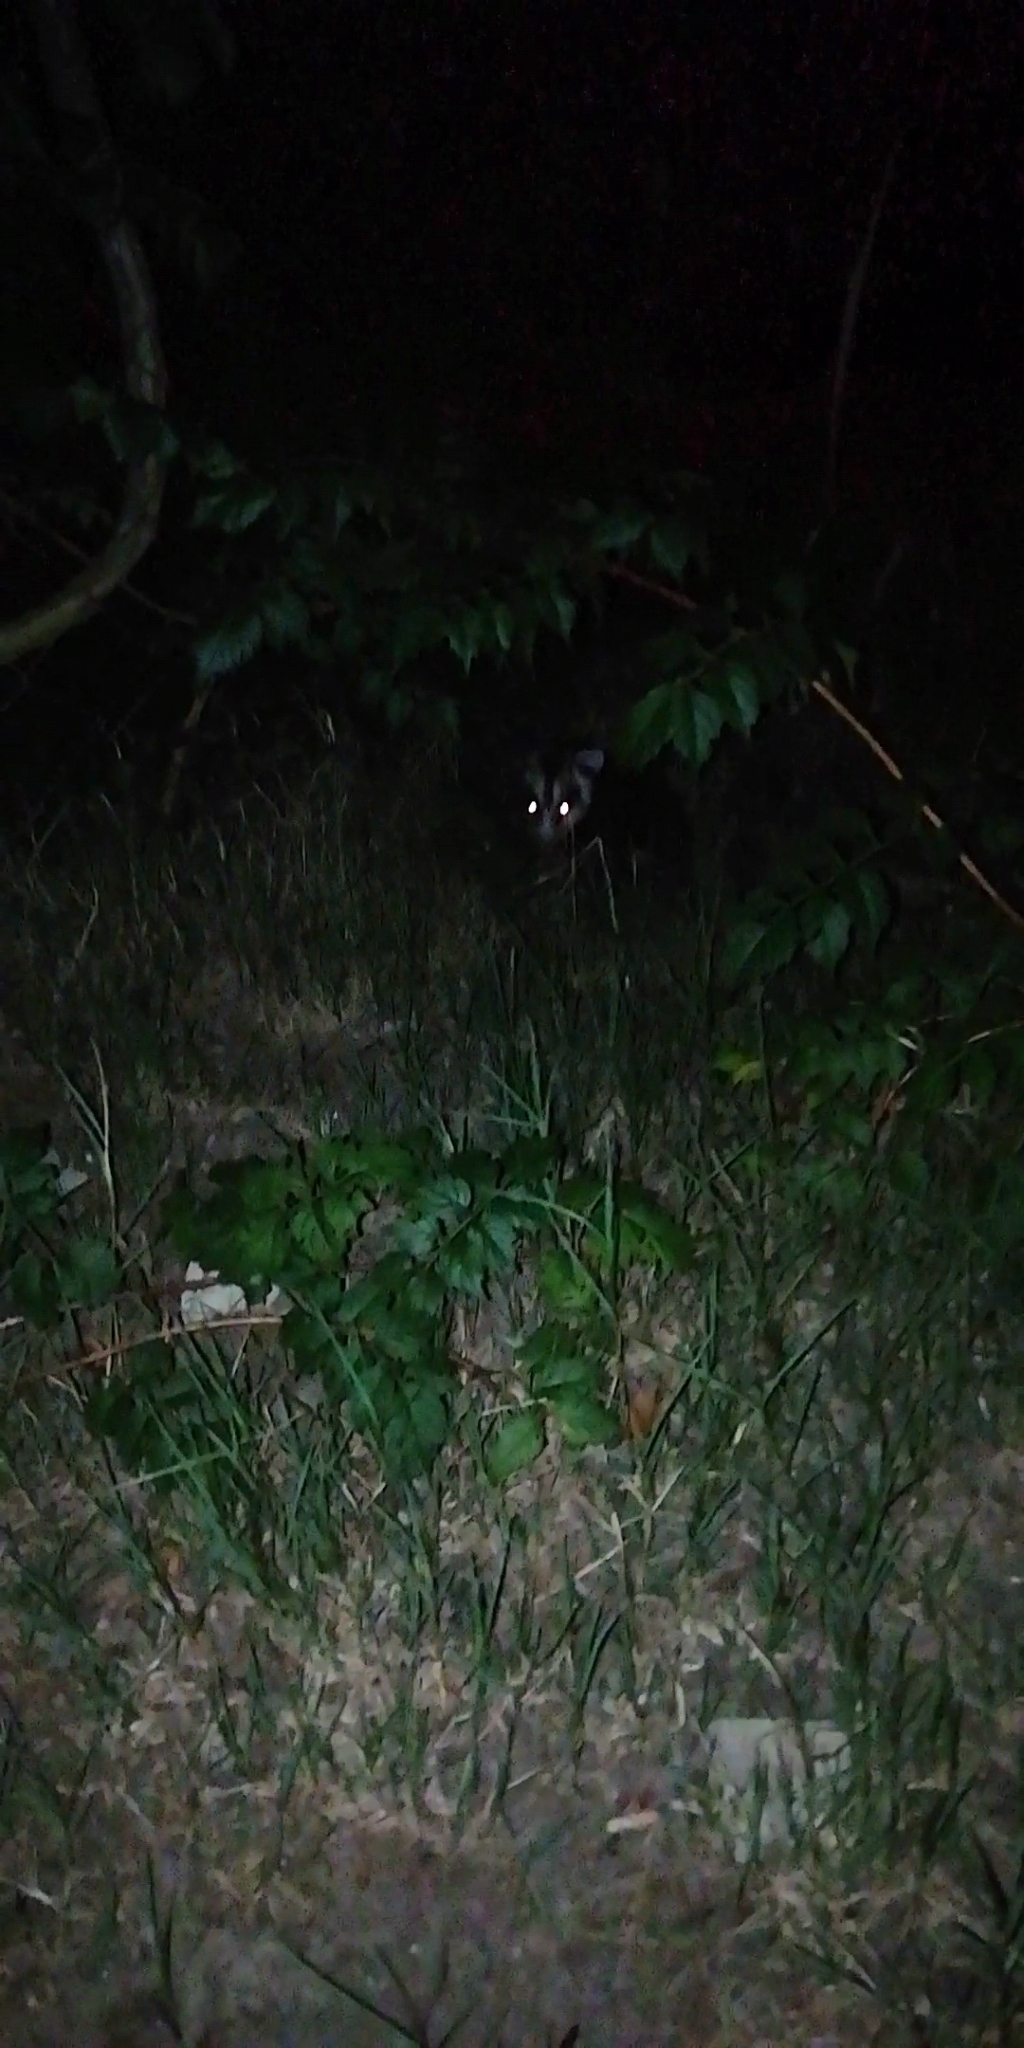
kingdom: Animalia
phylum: Chordata
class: Mammalia
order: Didelphimorphia
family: Didelphidae
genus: Didelphis
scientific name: Didelphis albiventris
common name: White-eared opossum
